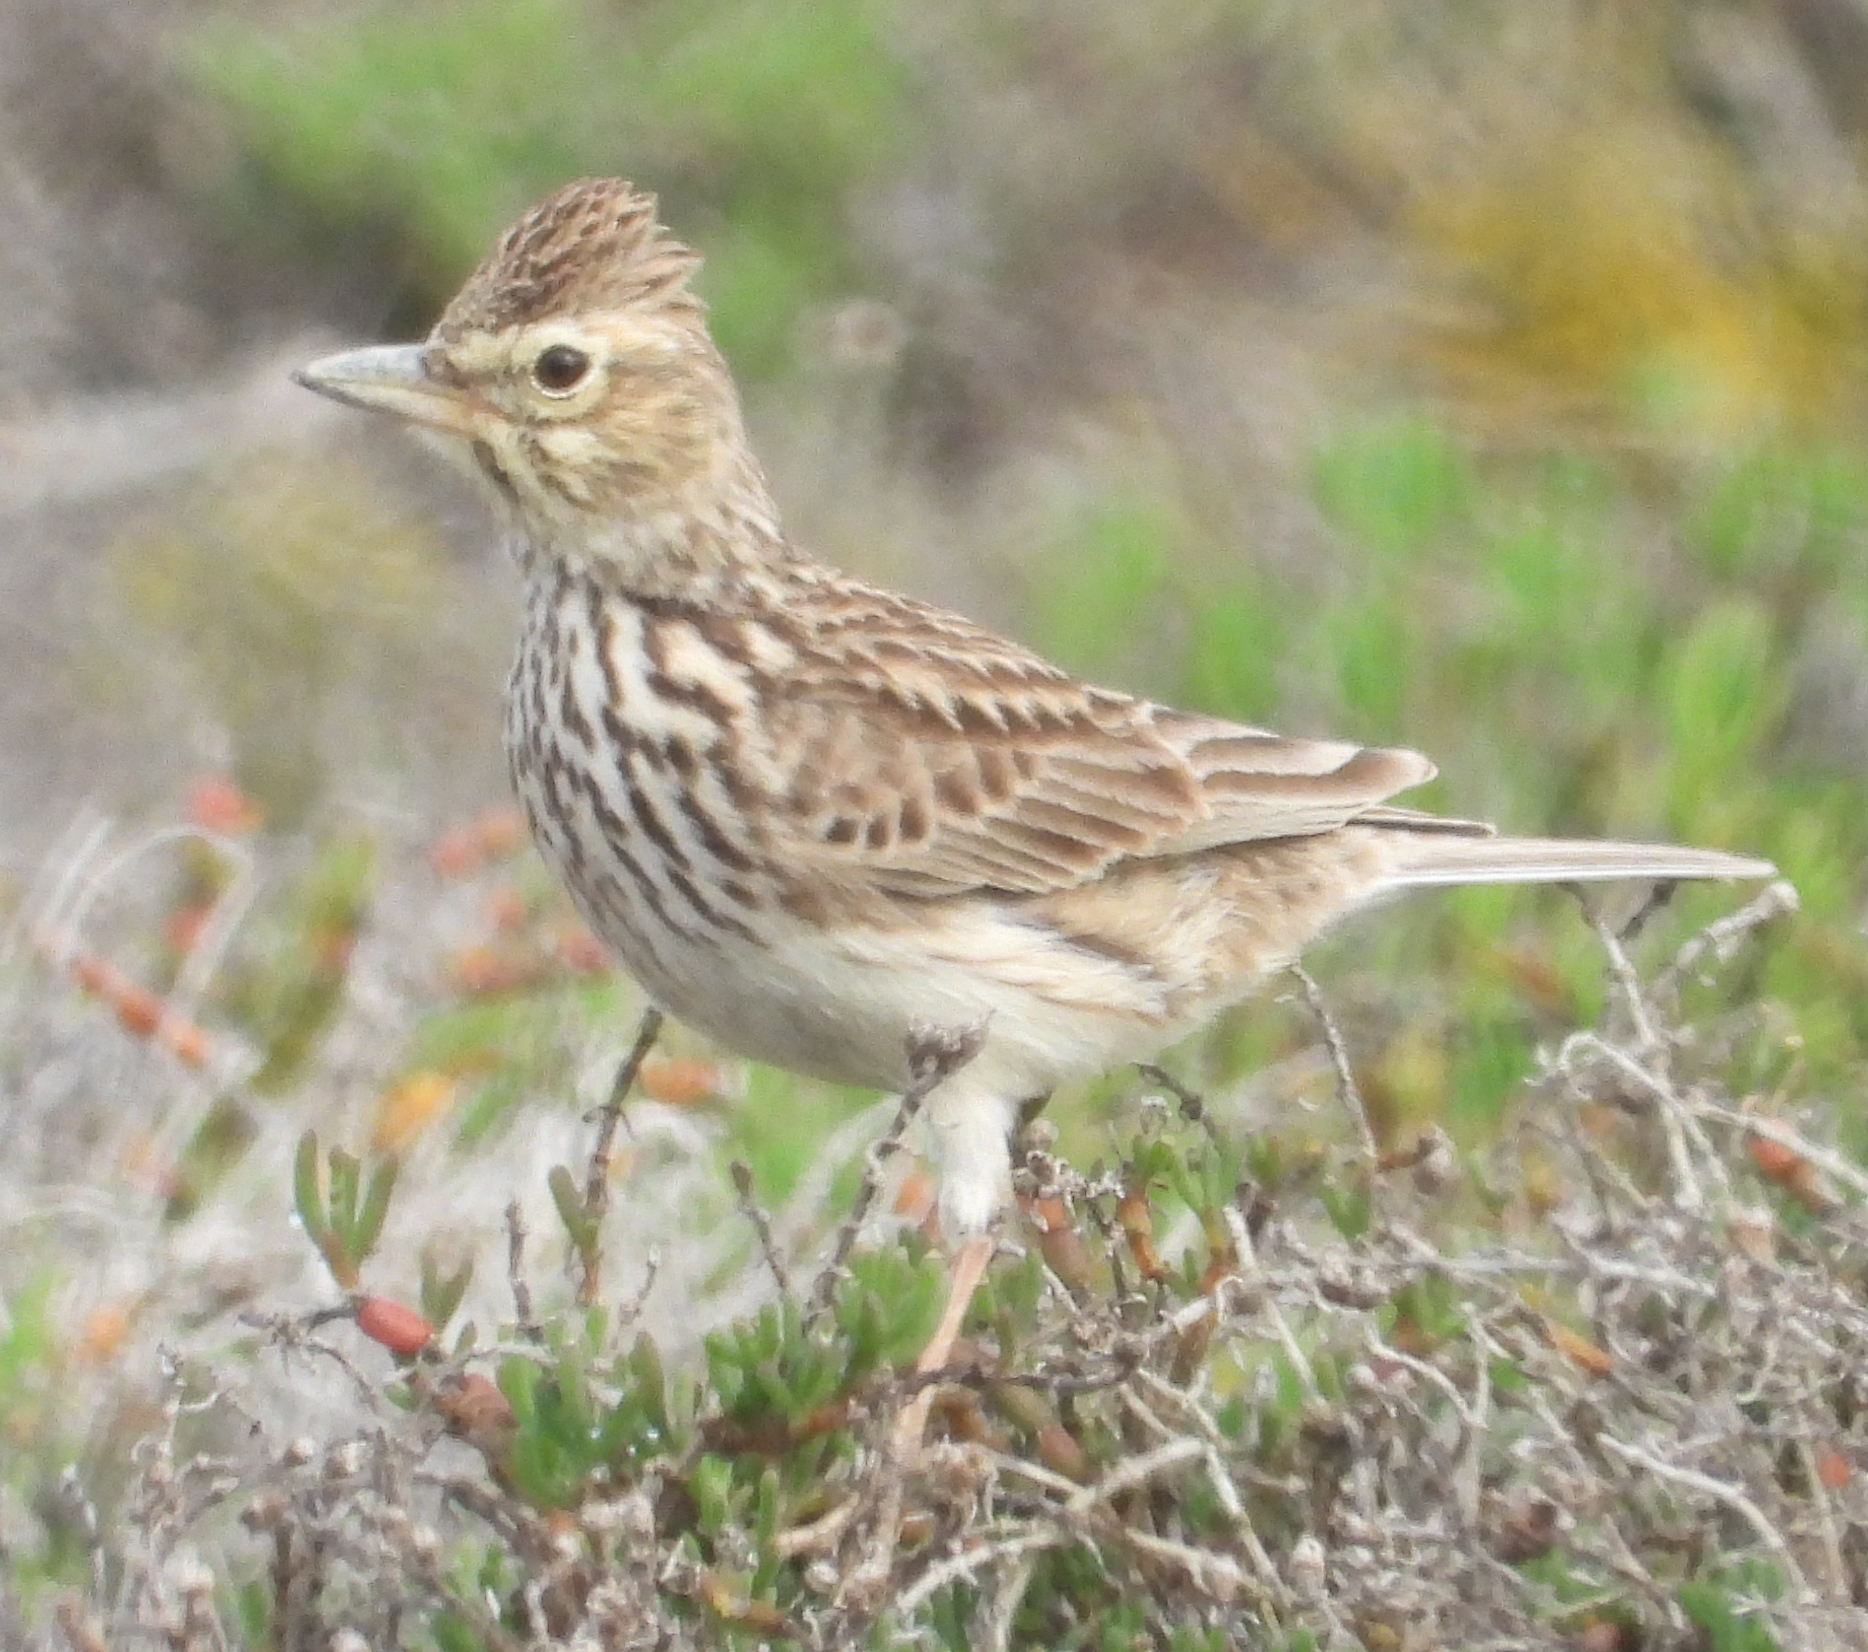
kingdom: Animalia
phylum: Chordata
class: Aves
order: Passeriformes
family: Alaudidae
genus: Galerida
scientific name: Galerida magnirostris
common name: Large-billed lark
